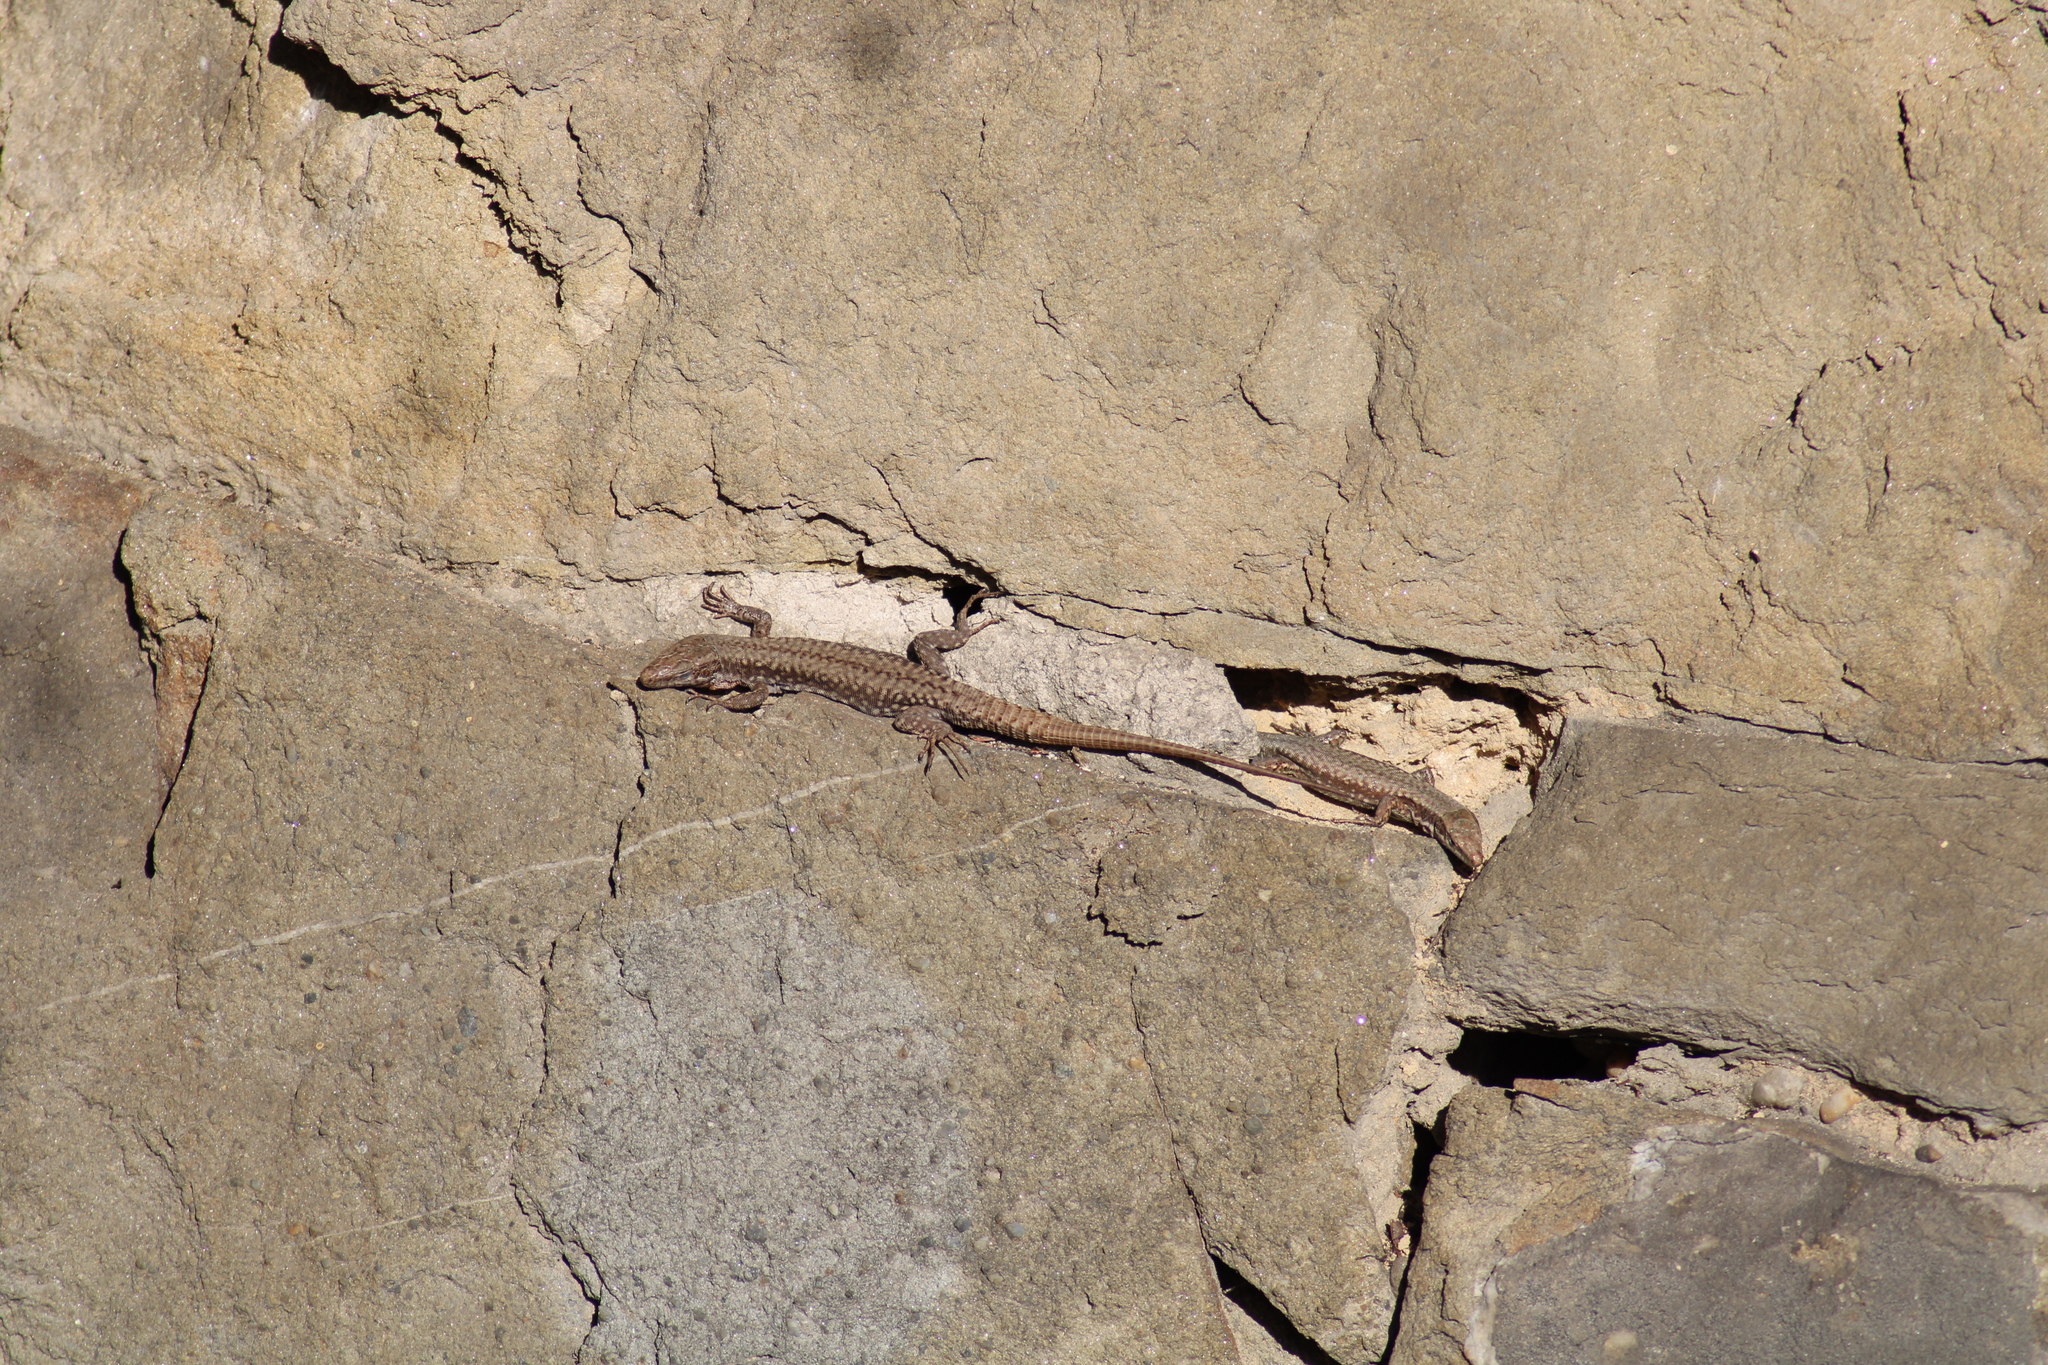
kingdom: Animalia
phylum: Chordata
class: Squamata
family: Lacertidae
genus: Podarcis
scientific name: Podarcis muralis
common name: Common wall lizard
